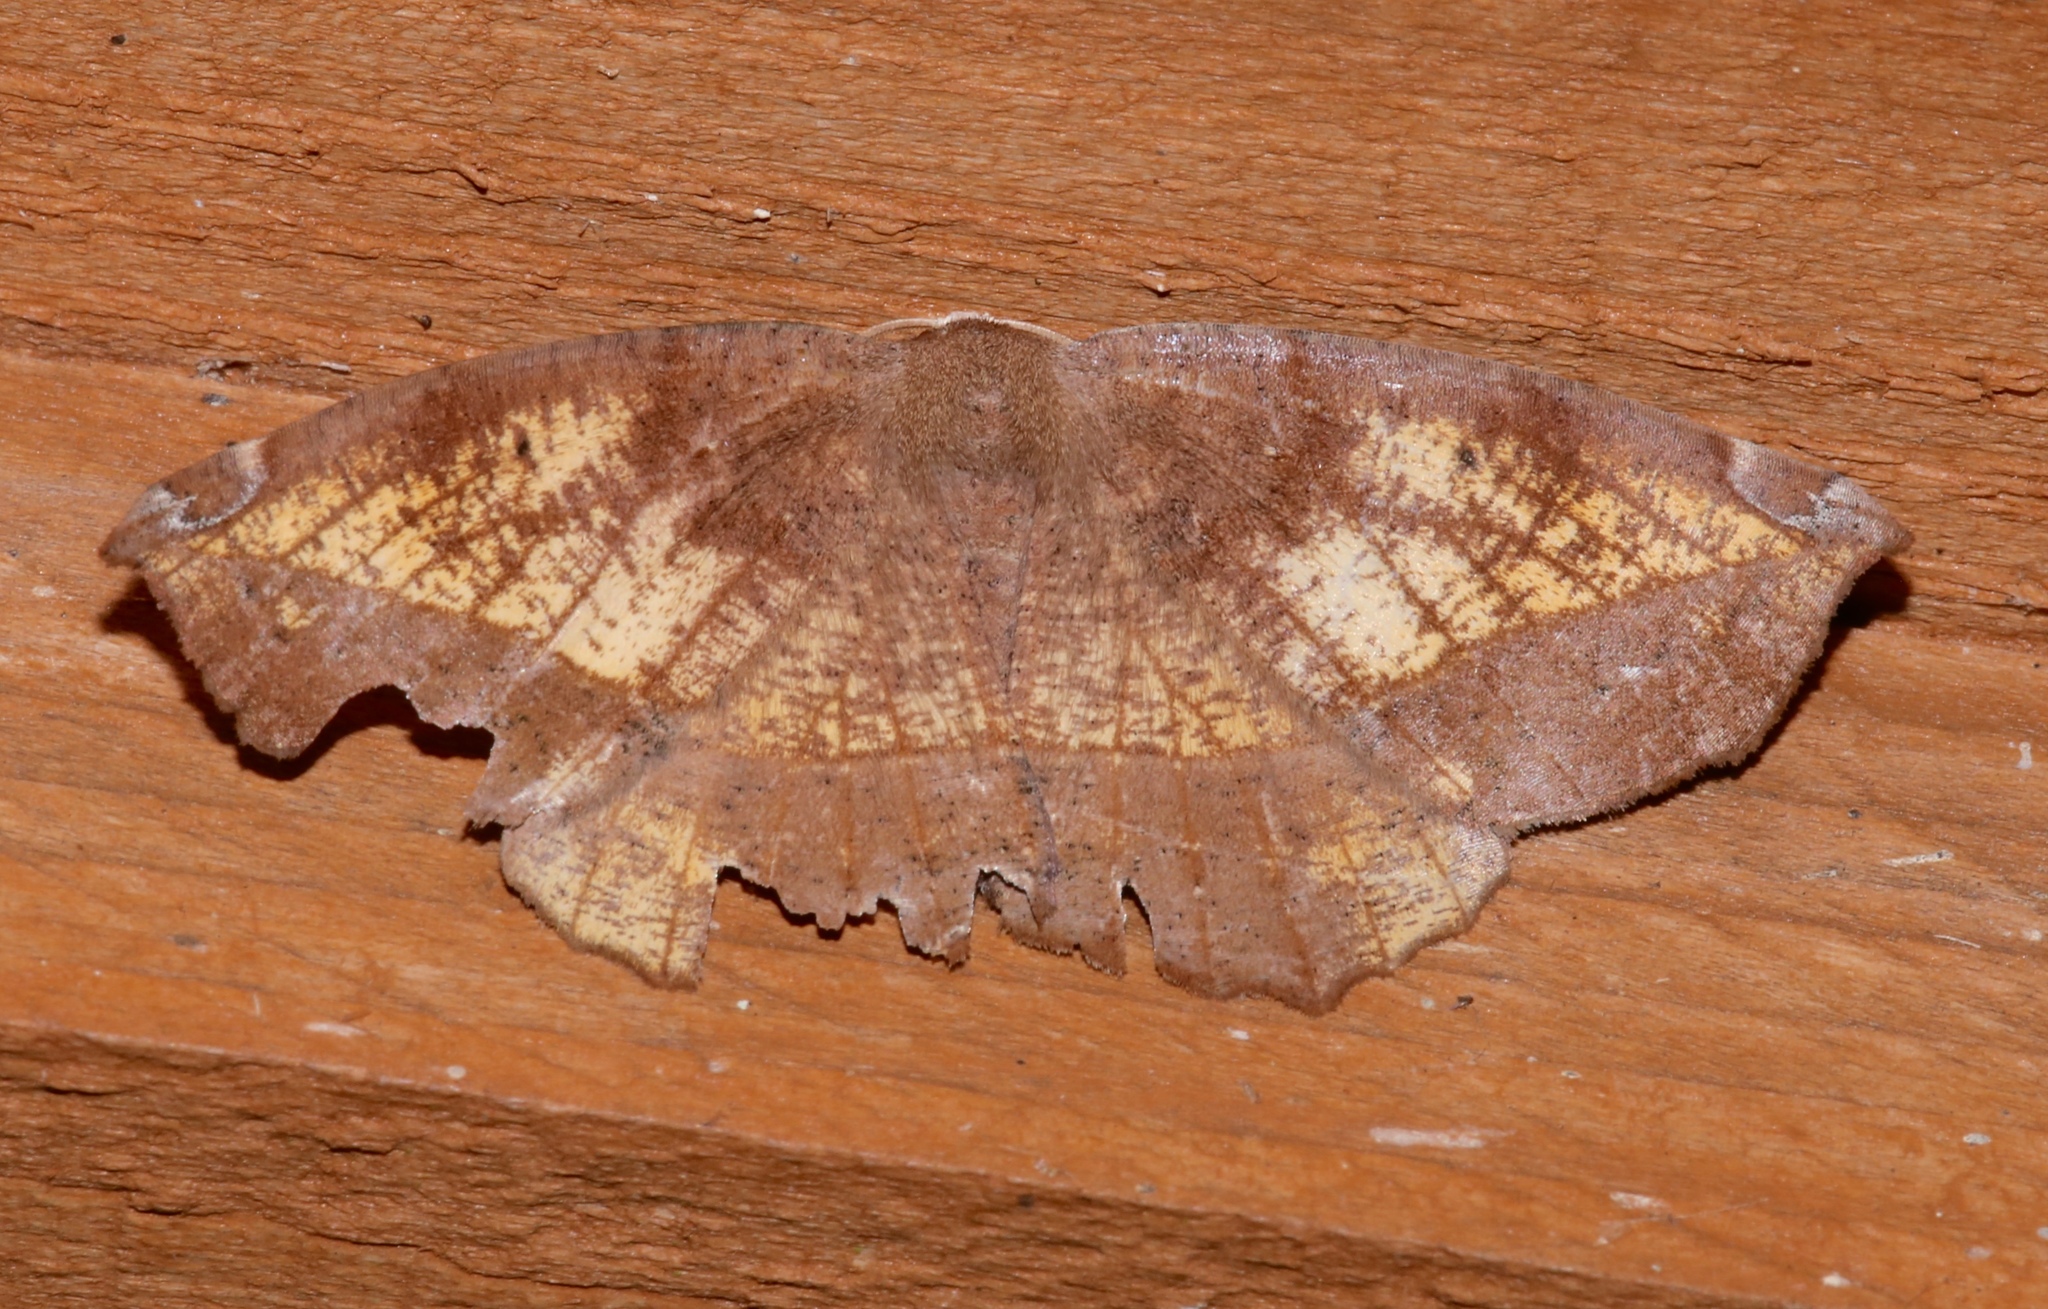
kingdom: Animalia
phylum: Arthropoda
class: Insecta
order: Lepidoptera
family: Geometridae
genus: Eutrapela
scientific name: Eutrapela clemataria
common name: Curved-toothed geometer
